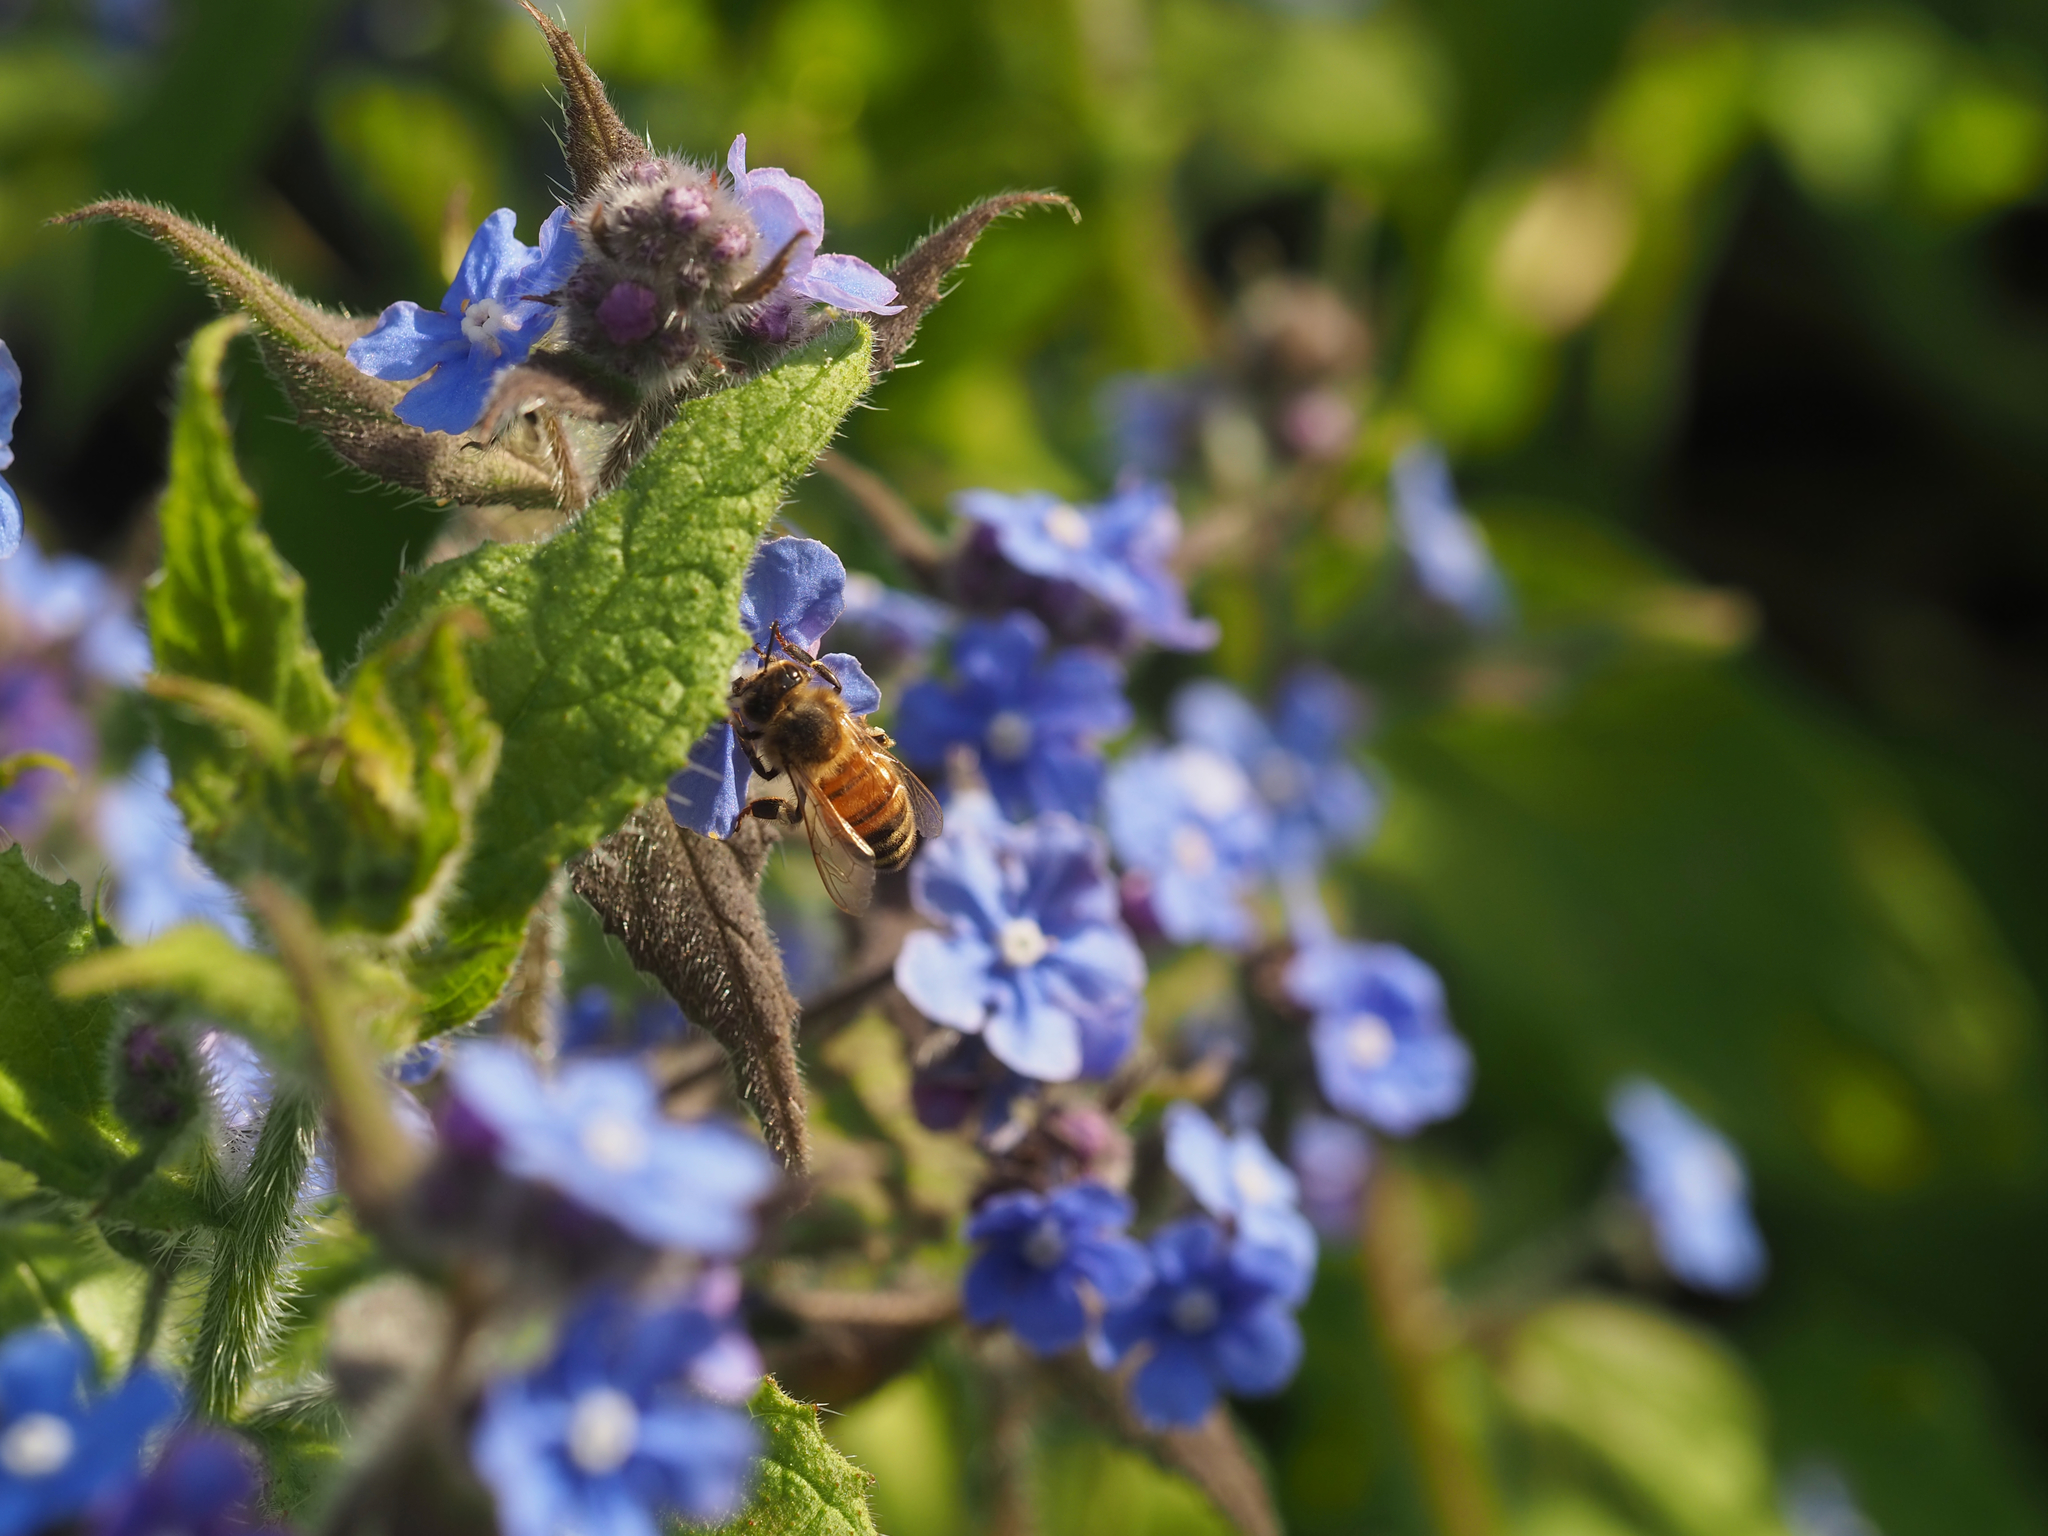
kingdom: Animalia
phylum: Arthropoda
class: Insecta
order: Hymenoptera
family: Apidae
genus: Apis
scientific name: Apis mellifera
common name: Honey bee
